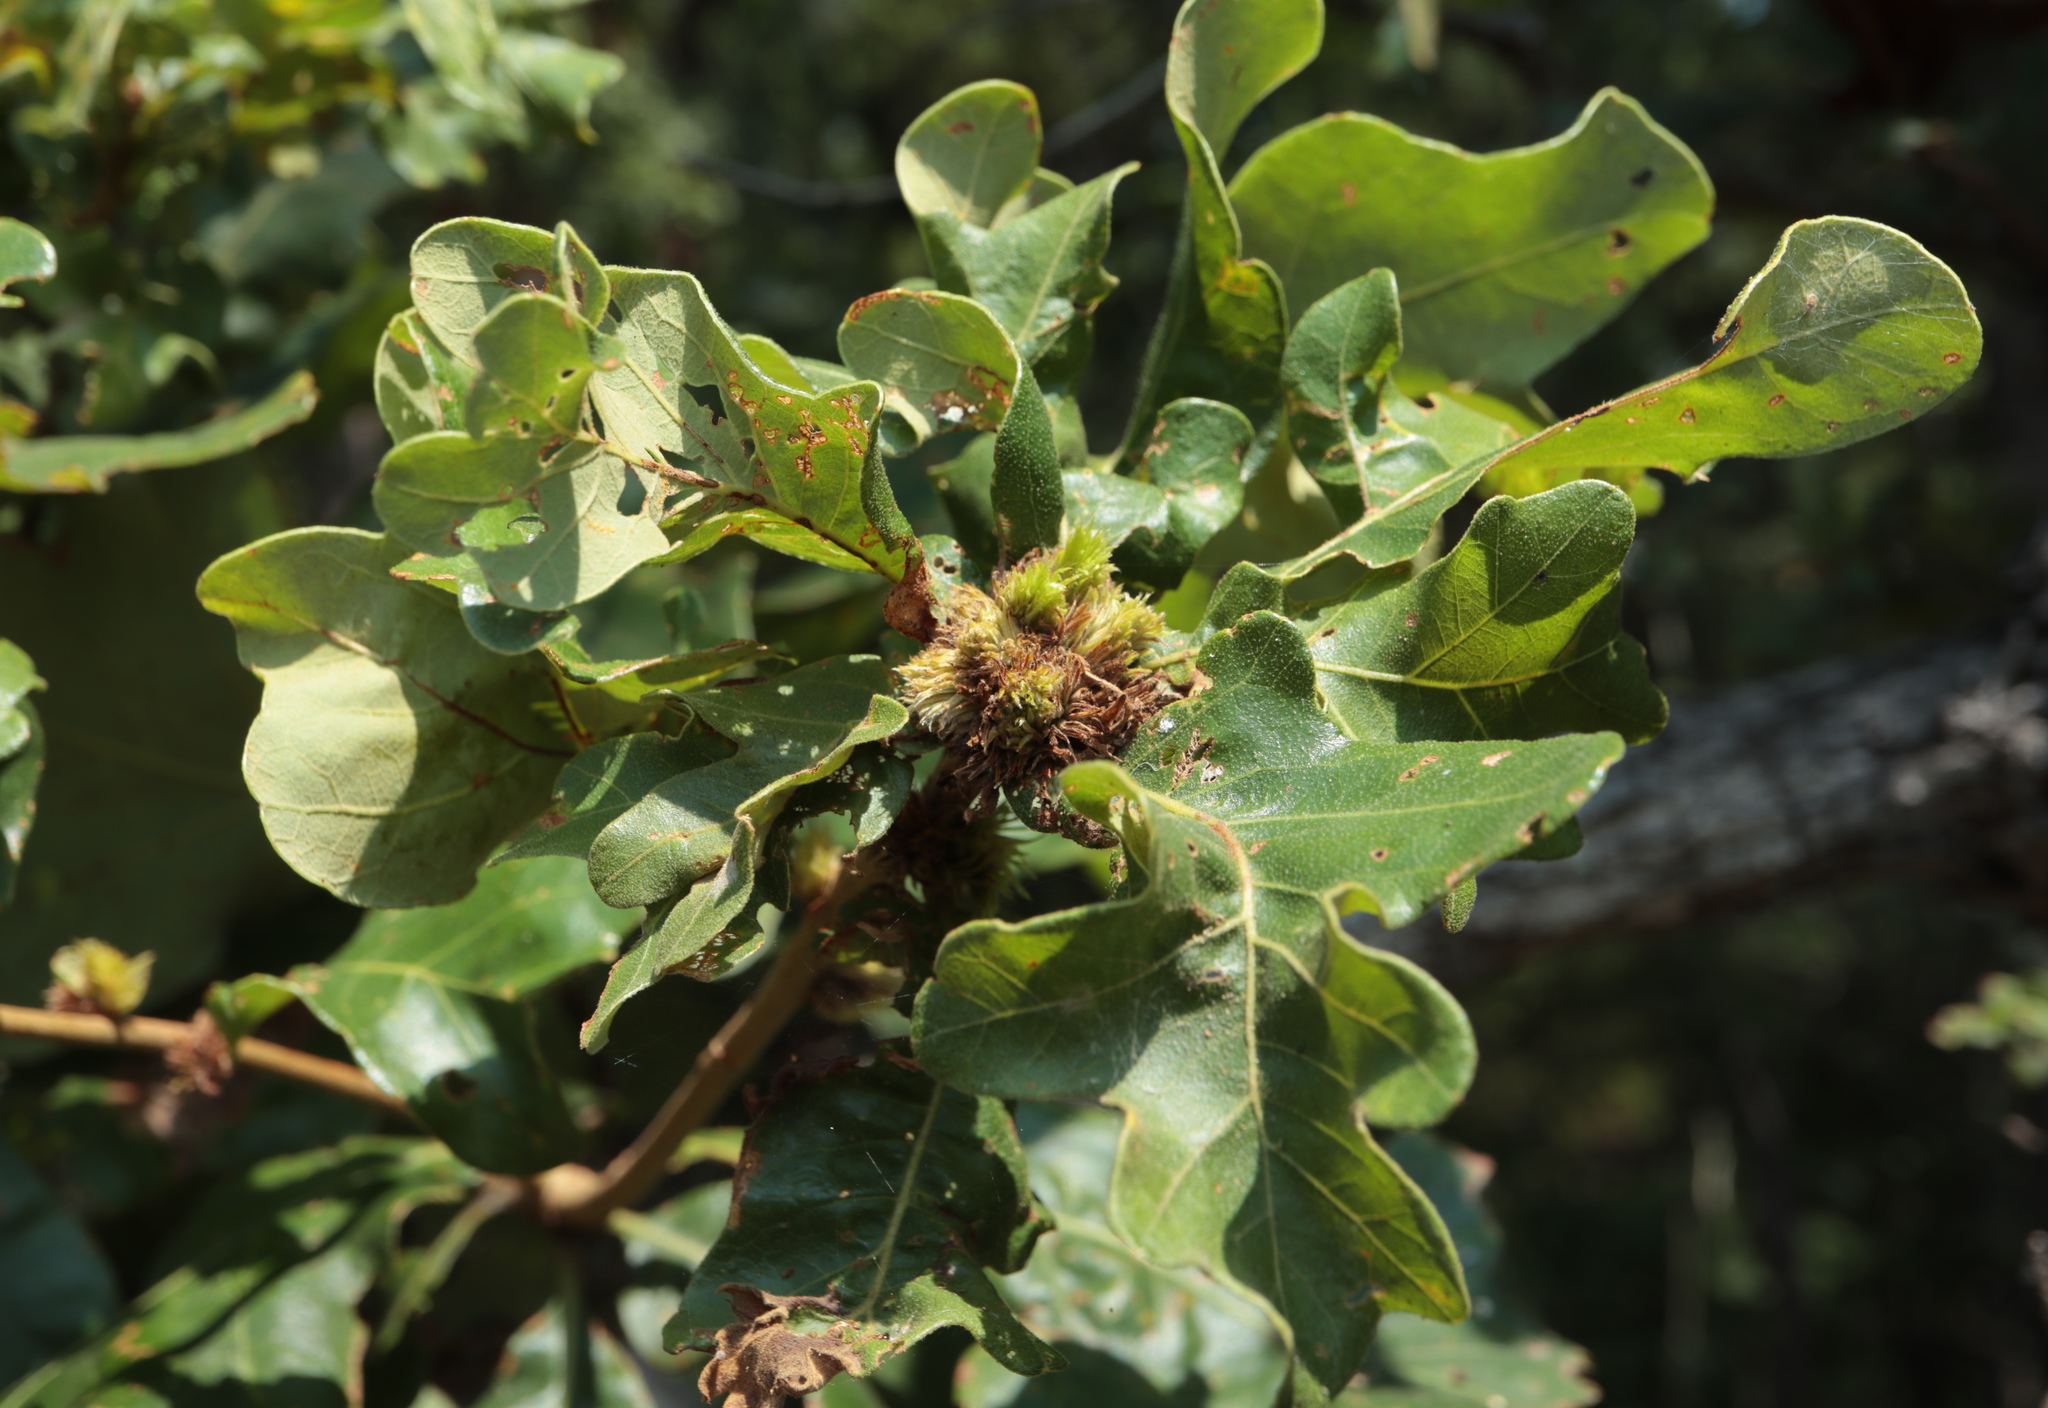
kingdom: Animalia
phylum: Arthropoda
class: Insecta
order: Hymenoptera
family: Cynipidae
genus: Andricus
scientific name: Andricus
